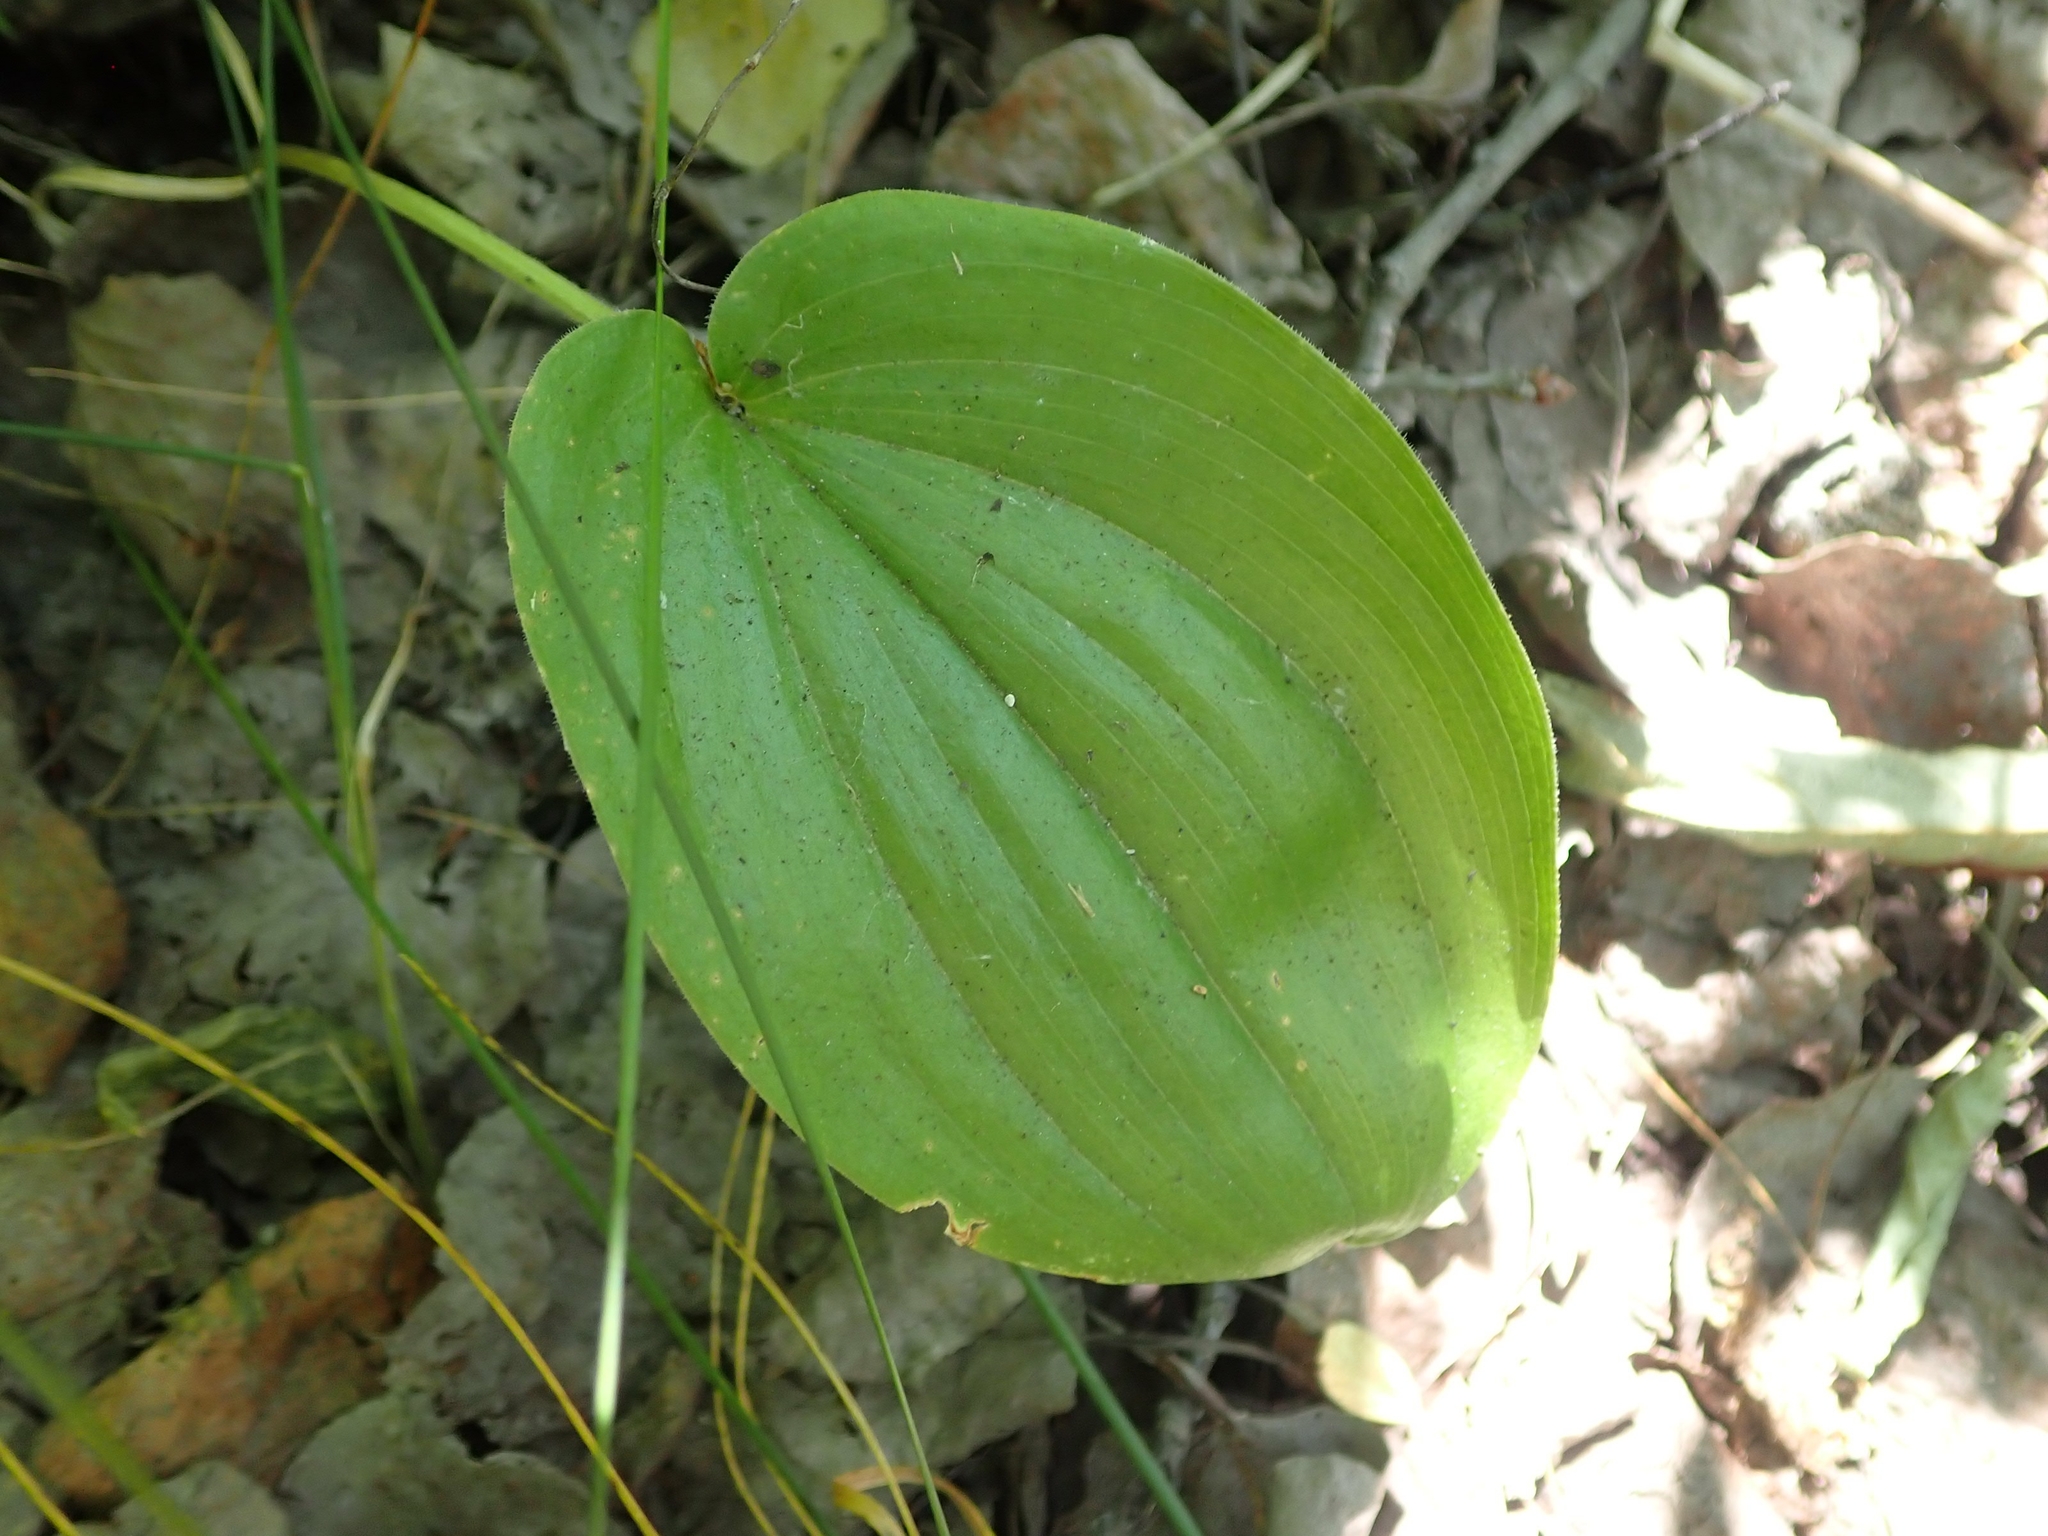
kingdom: Plantae
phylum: Tracheophyta
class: Liliopsida
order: Asparagales
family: Asparagaceae
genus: Maianthemum
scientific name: Maianthemum canadense
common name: False lily-of-the-valley
